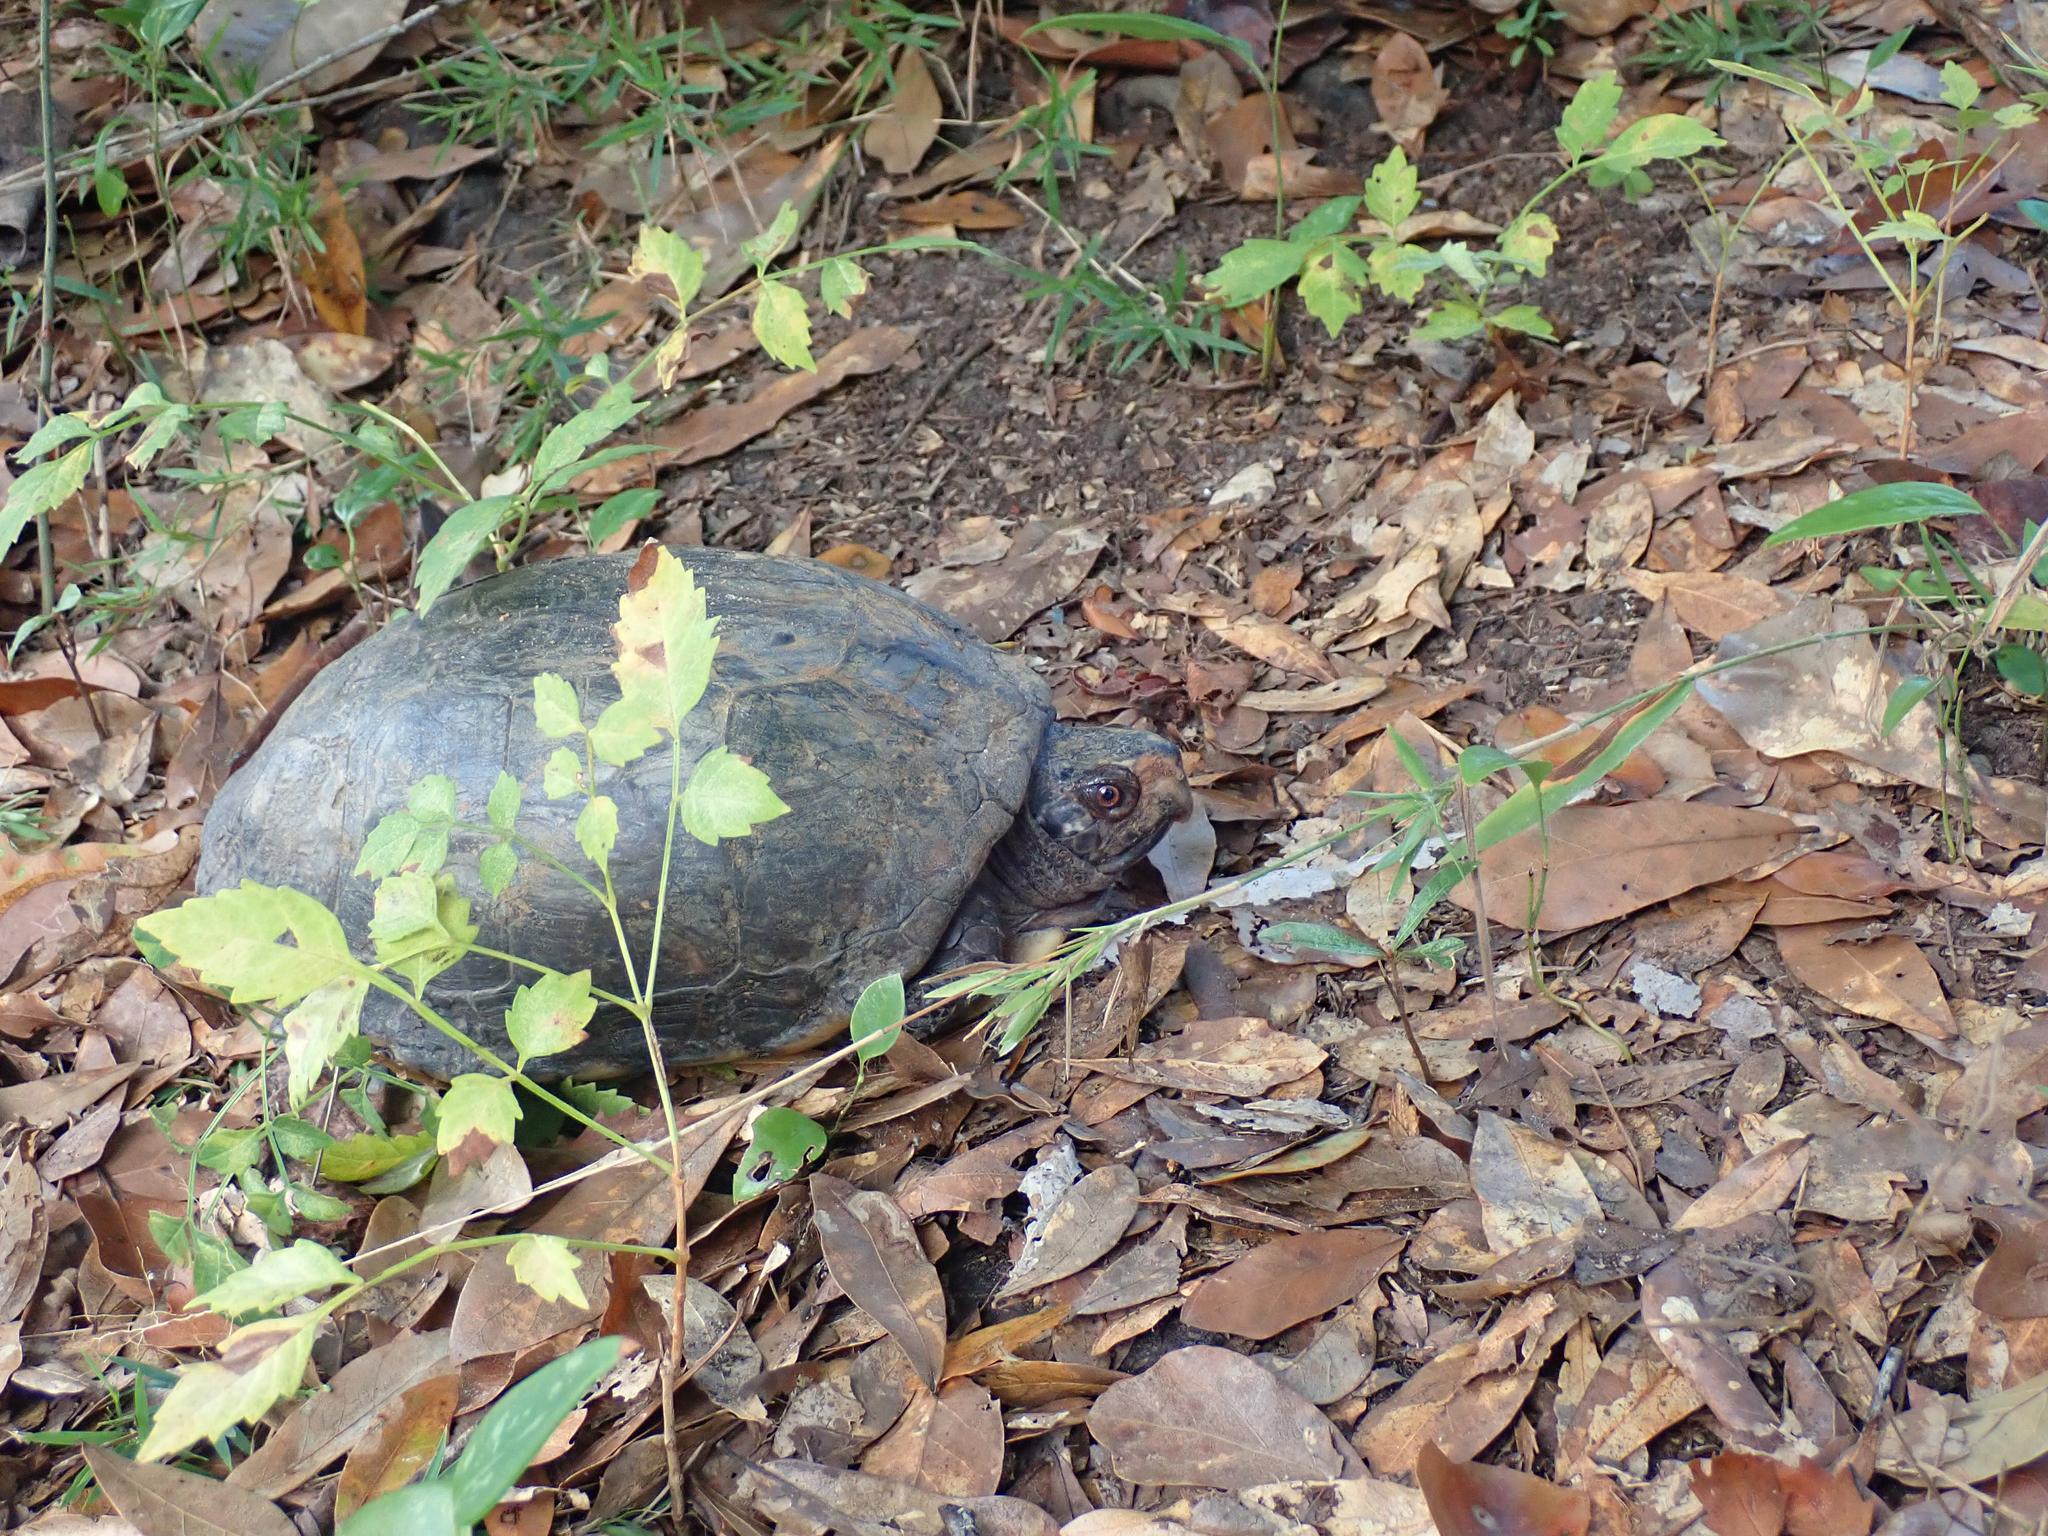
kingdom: Animalia
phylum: Chordata
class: Testudines
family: Emydidae
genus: Terrapene
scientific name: Terrapene carolina
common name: Common box turtle
